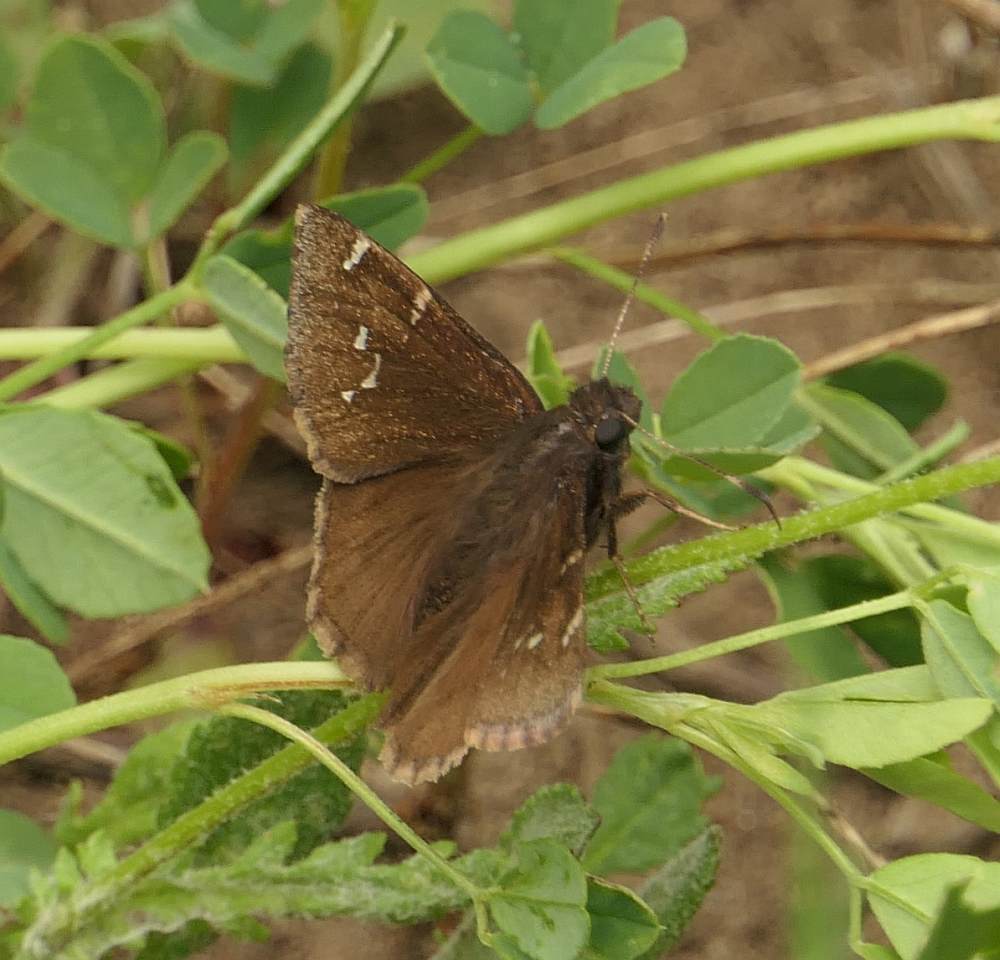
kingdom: Animalia
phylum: Arthropoda
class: Insecta
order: Lepidoptera
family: Hesperiidae
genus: Thorybes
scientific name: Thorybes pylades
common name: Northern cloudywing
